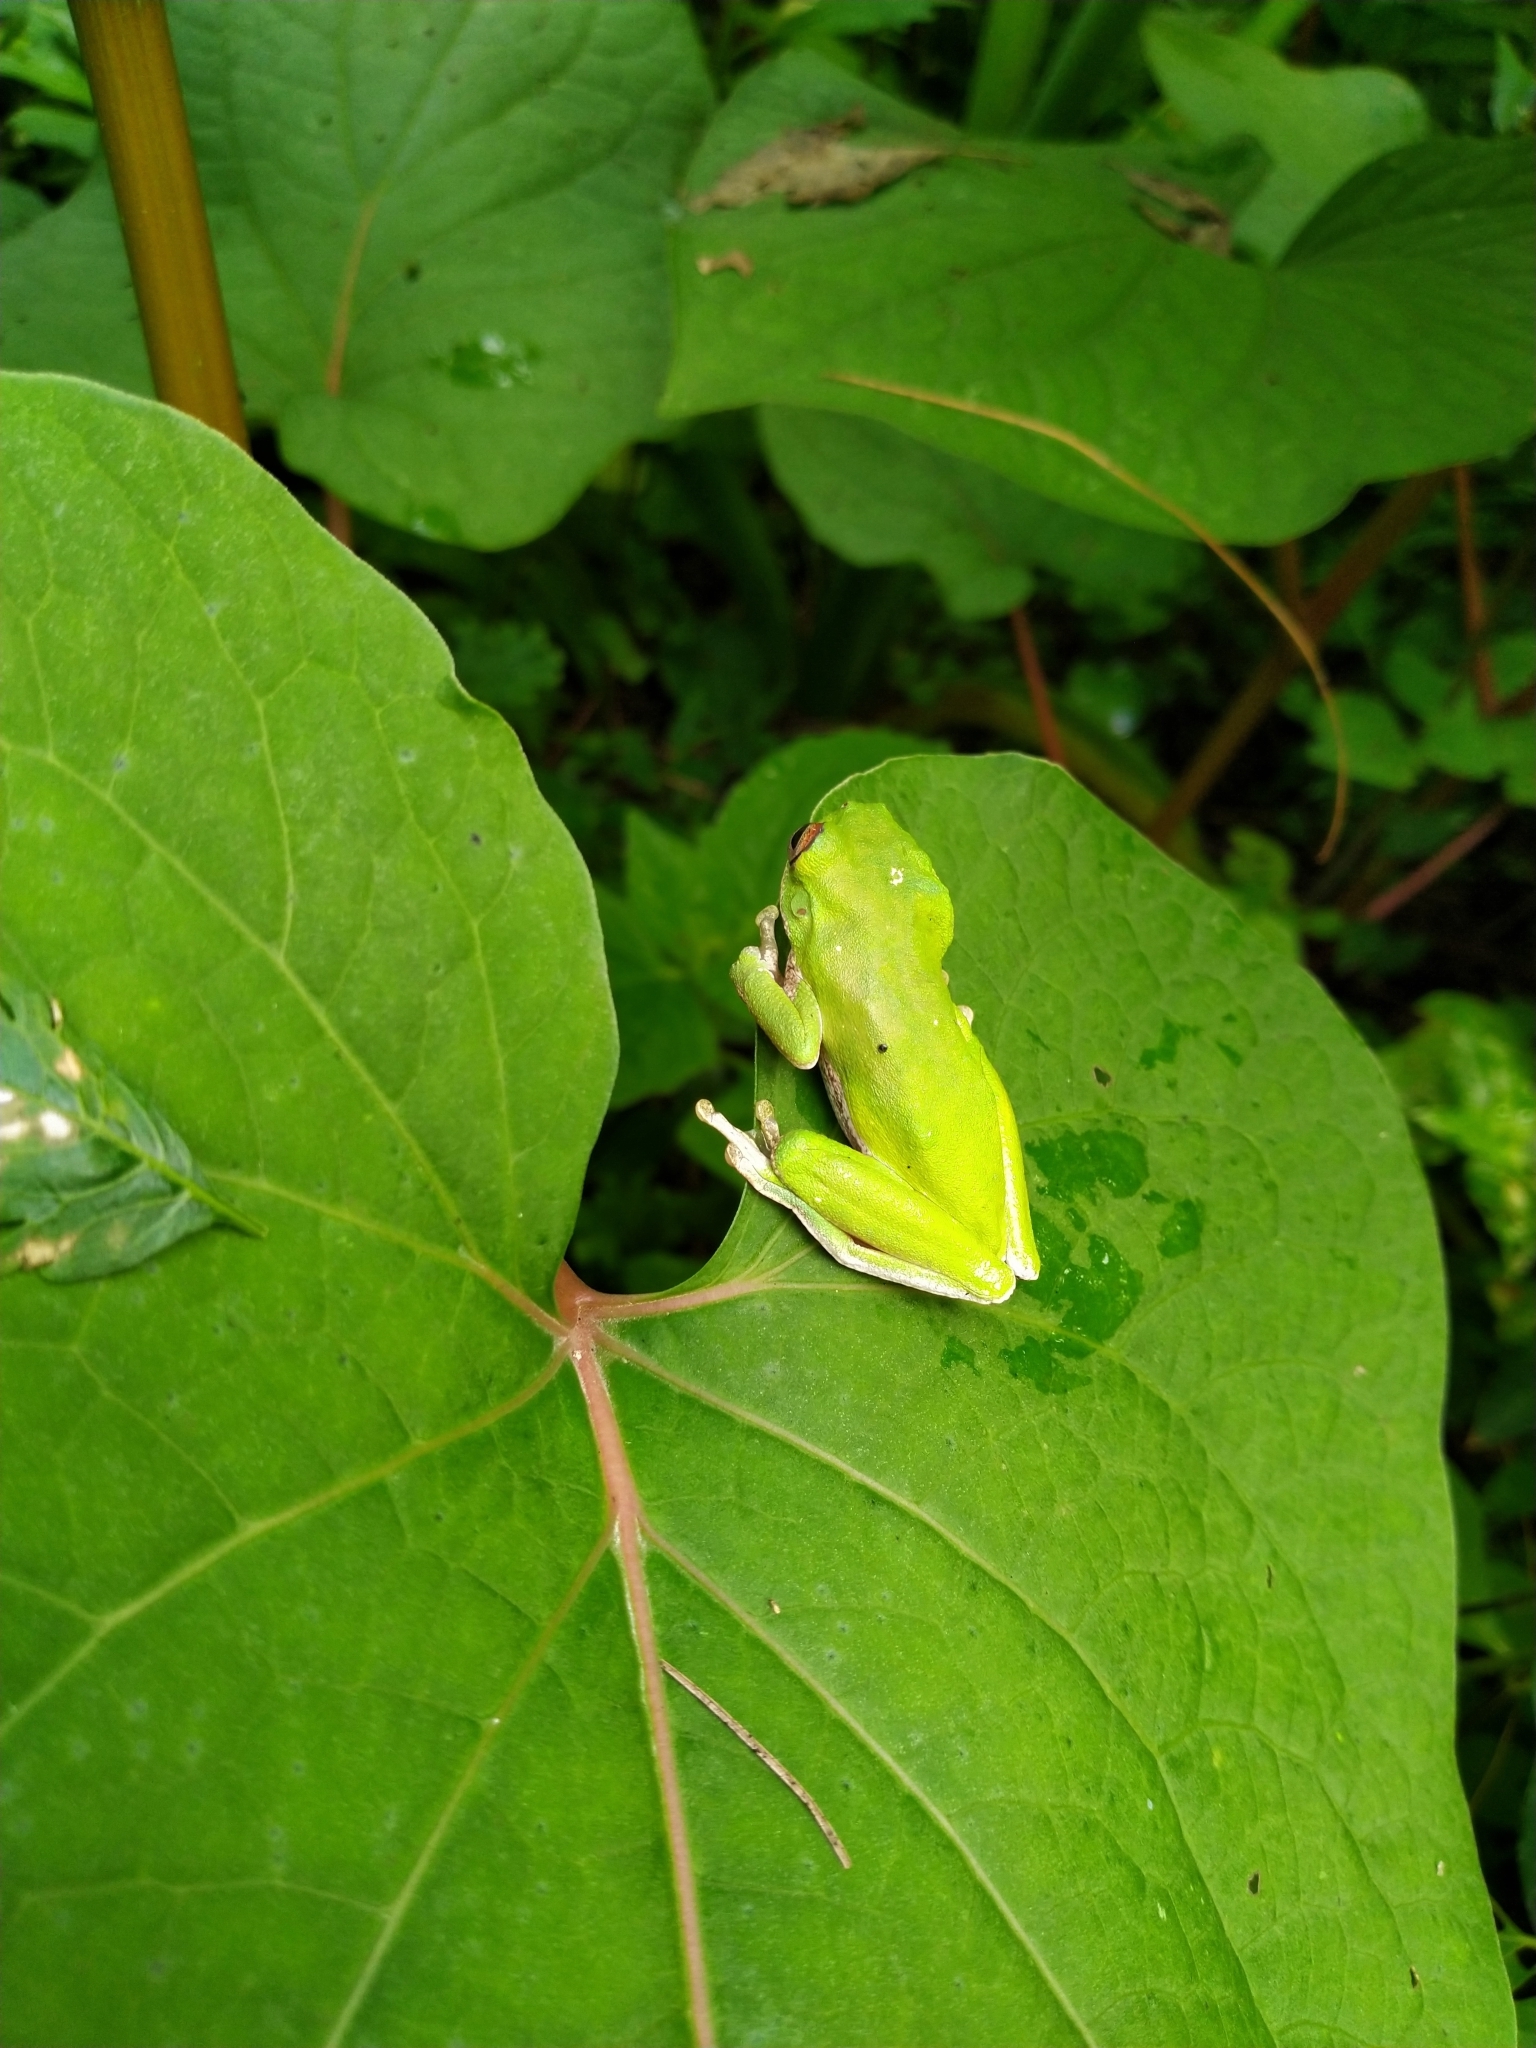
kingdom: Animalia
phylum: Chordata
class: Amphibia
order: Anura
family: Hylidae
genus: Rheohyla
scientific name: Rheohyla miotympanum
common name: Small-eard hyla
